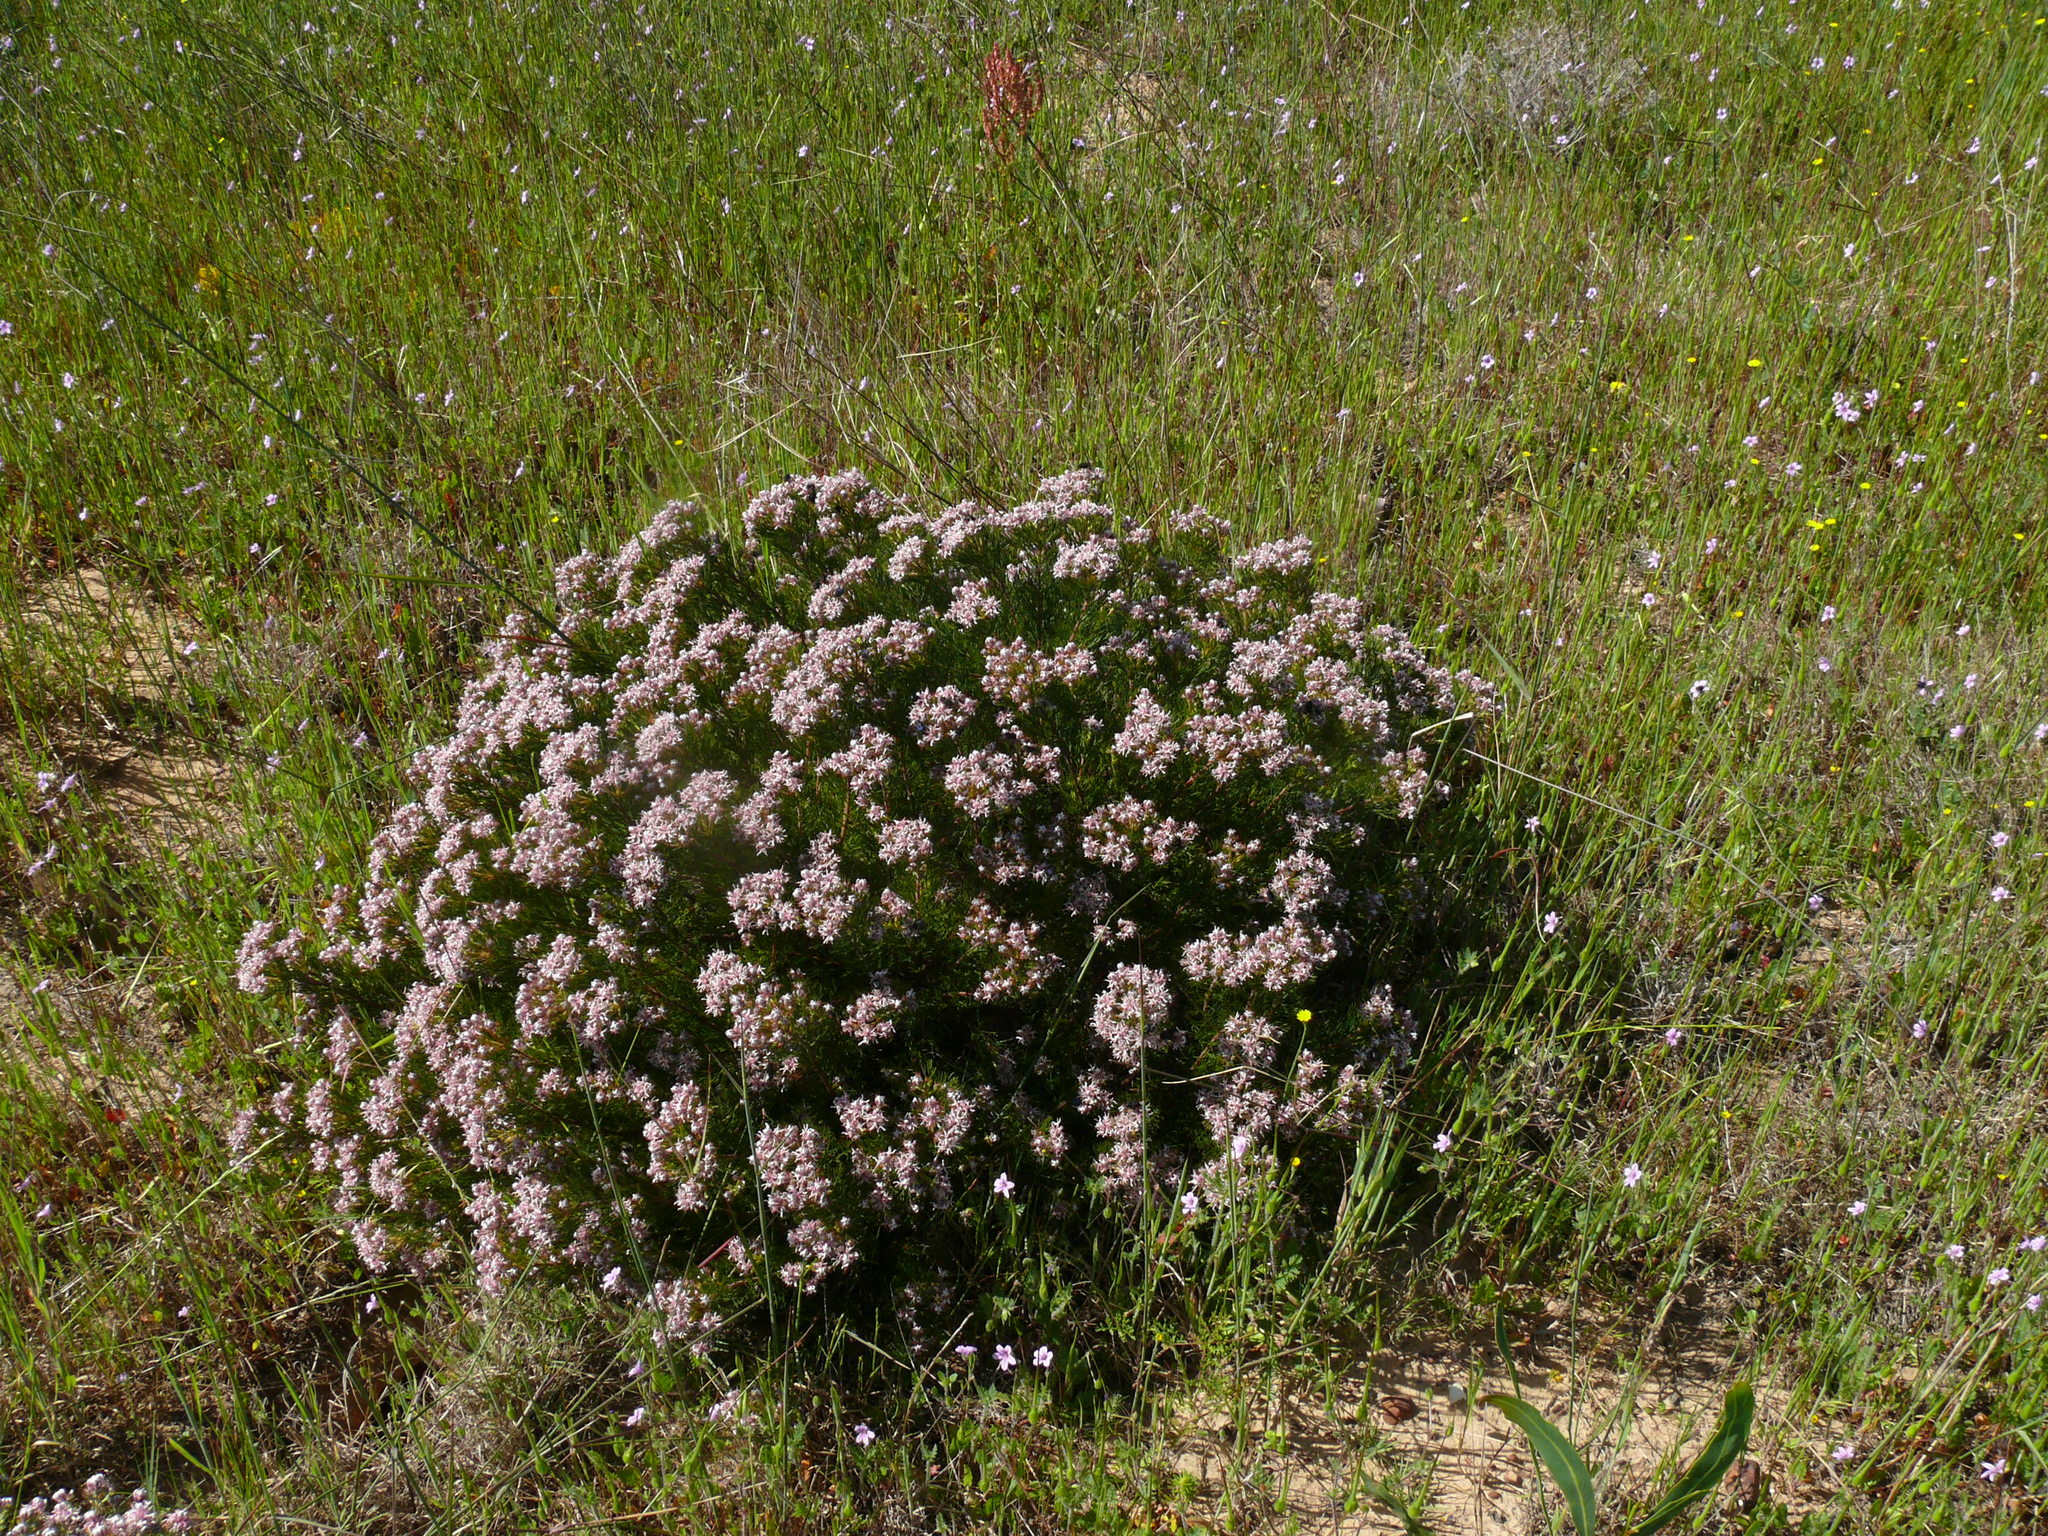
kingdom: Plantae
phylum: Tracheophyta
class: Magnoliopsida
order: Proteales
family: Proteaceae
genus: Serruria
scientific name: Serruria decipiens
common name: Sandveld spiderhead
